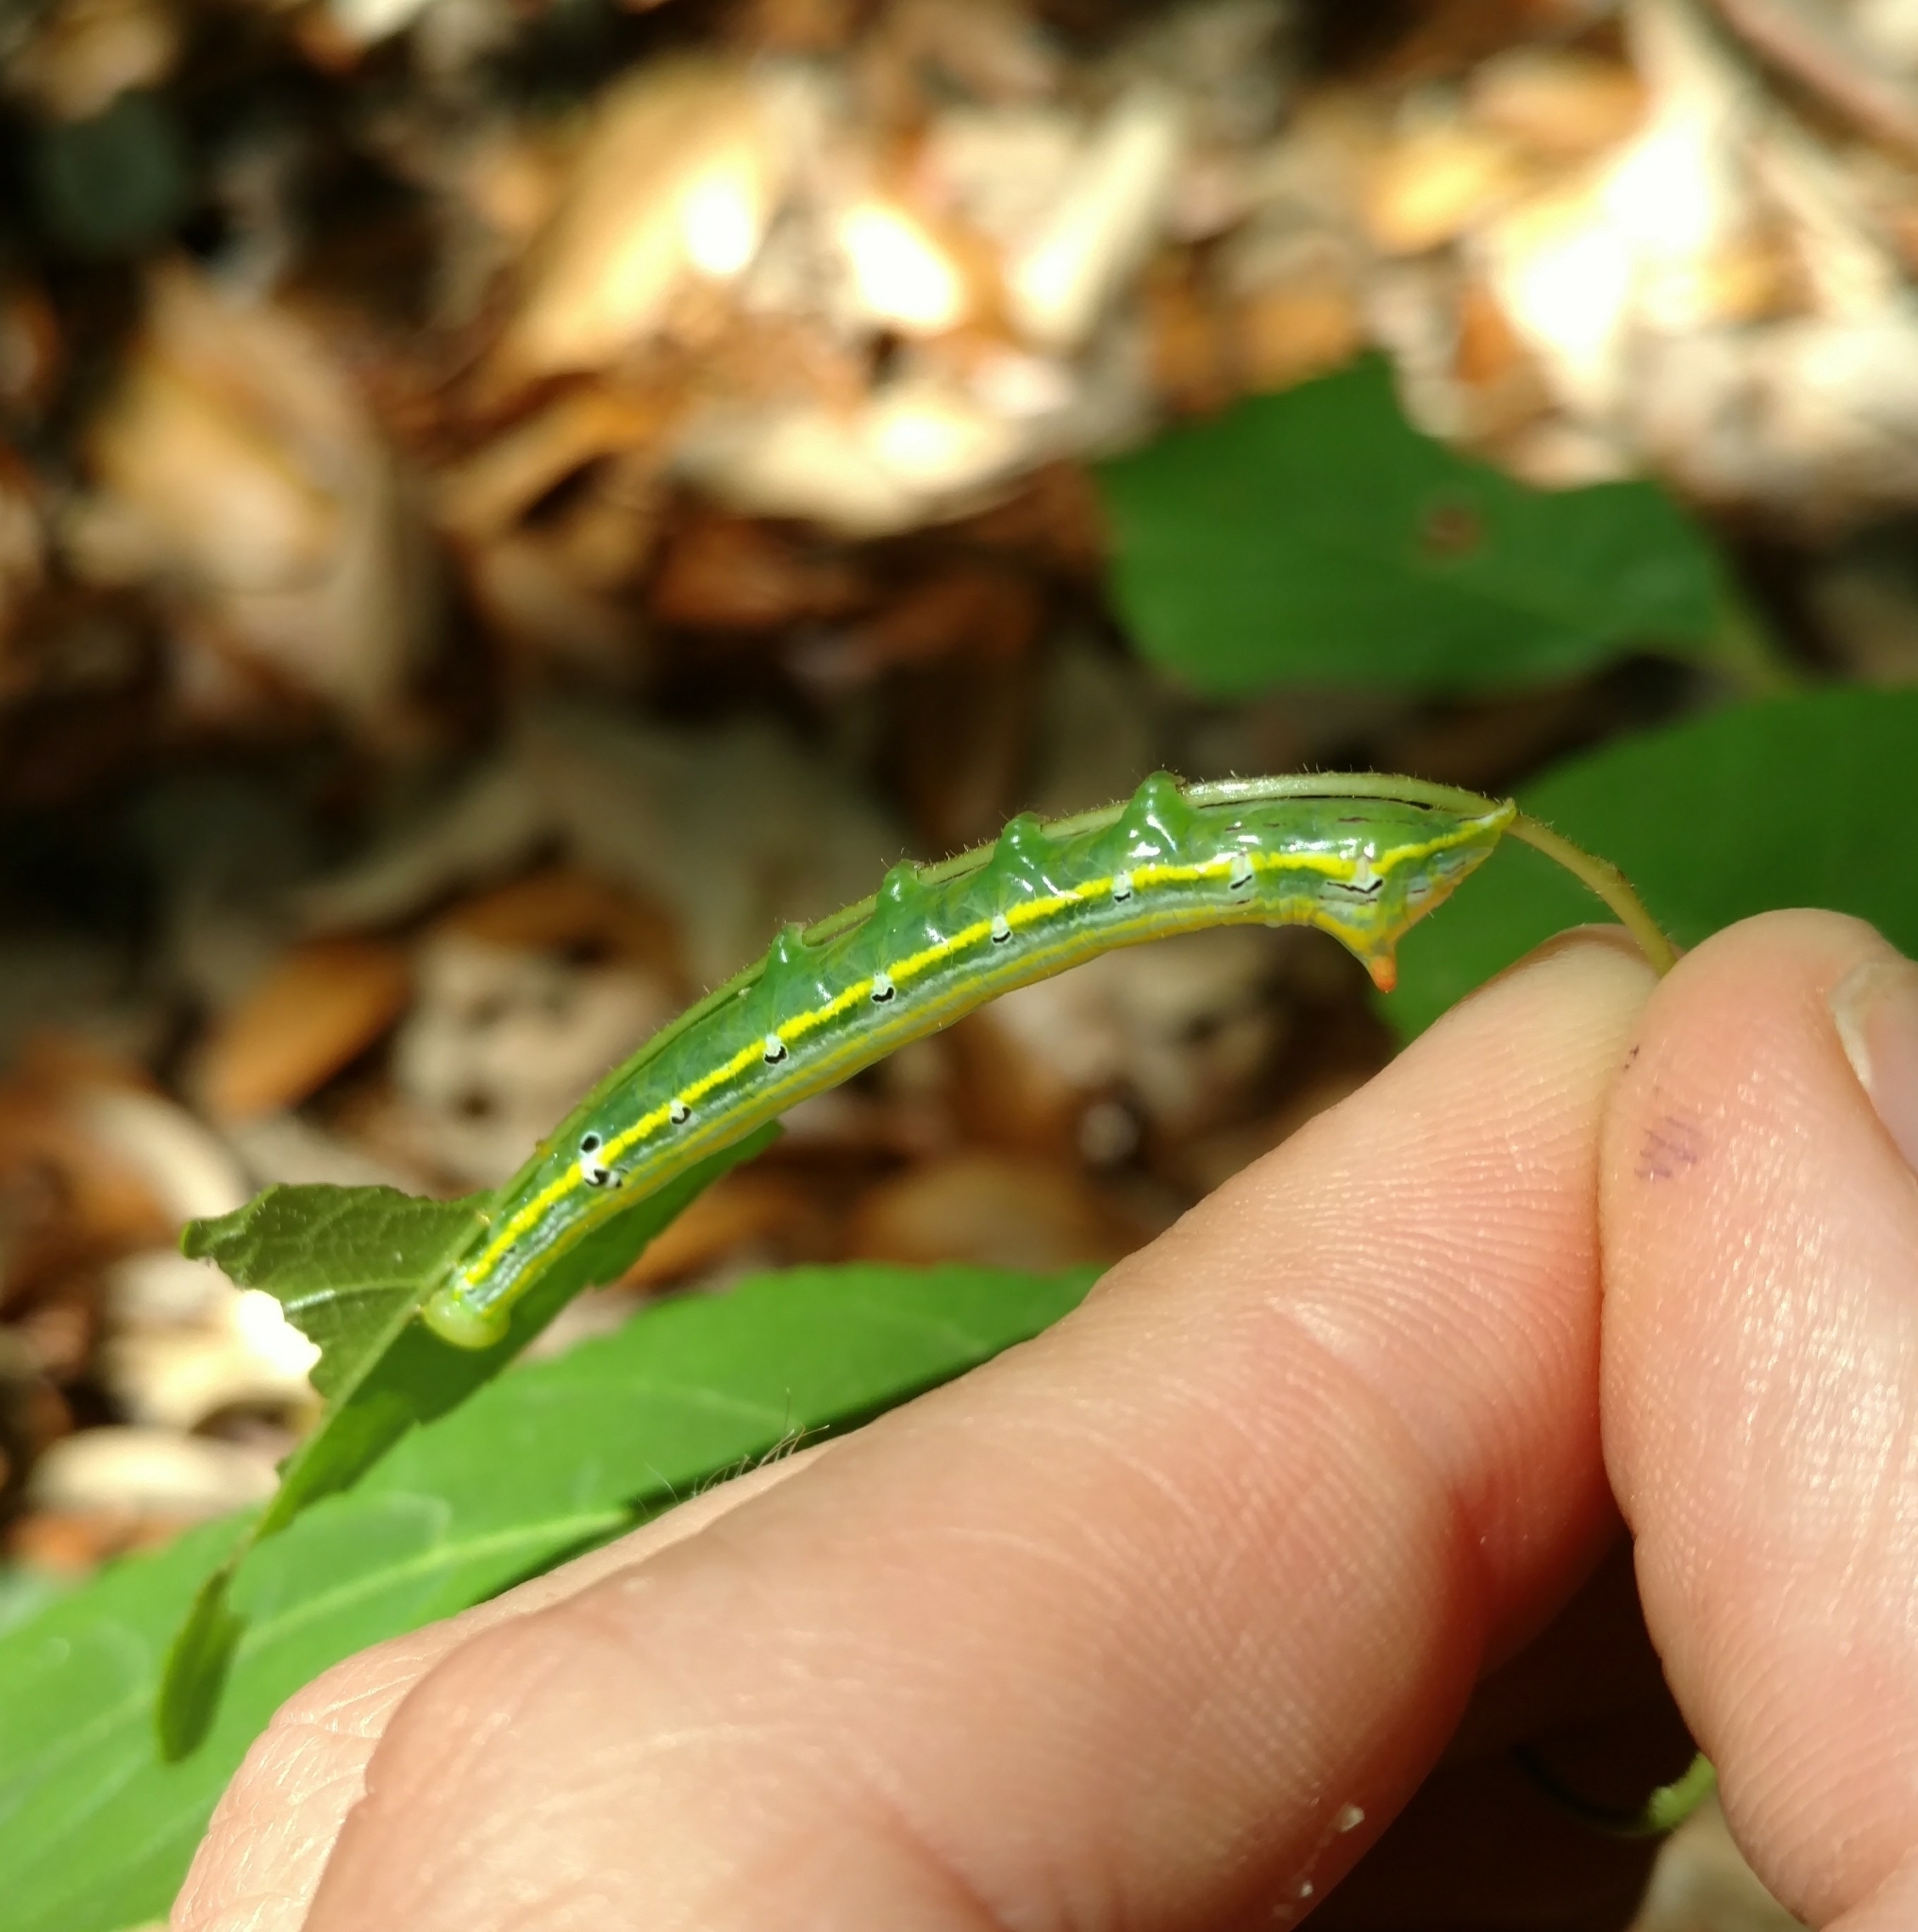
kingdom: Animalia
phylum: Arthropoda
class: Insecta
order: Lepidoptera
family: Notodontidae
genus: Elasmia
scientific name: Elasmia cave
